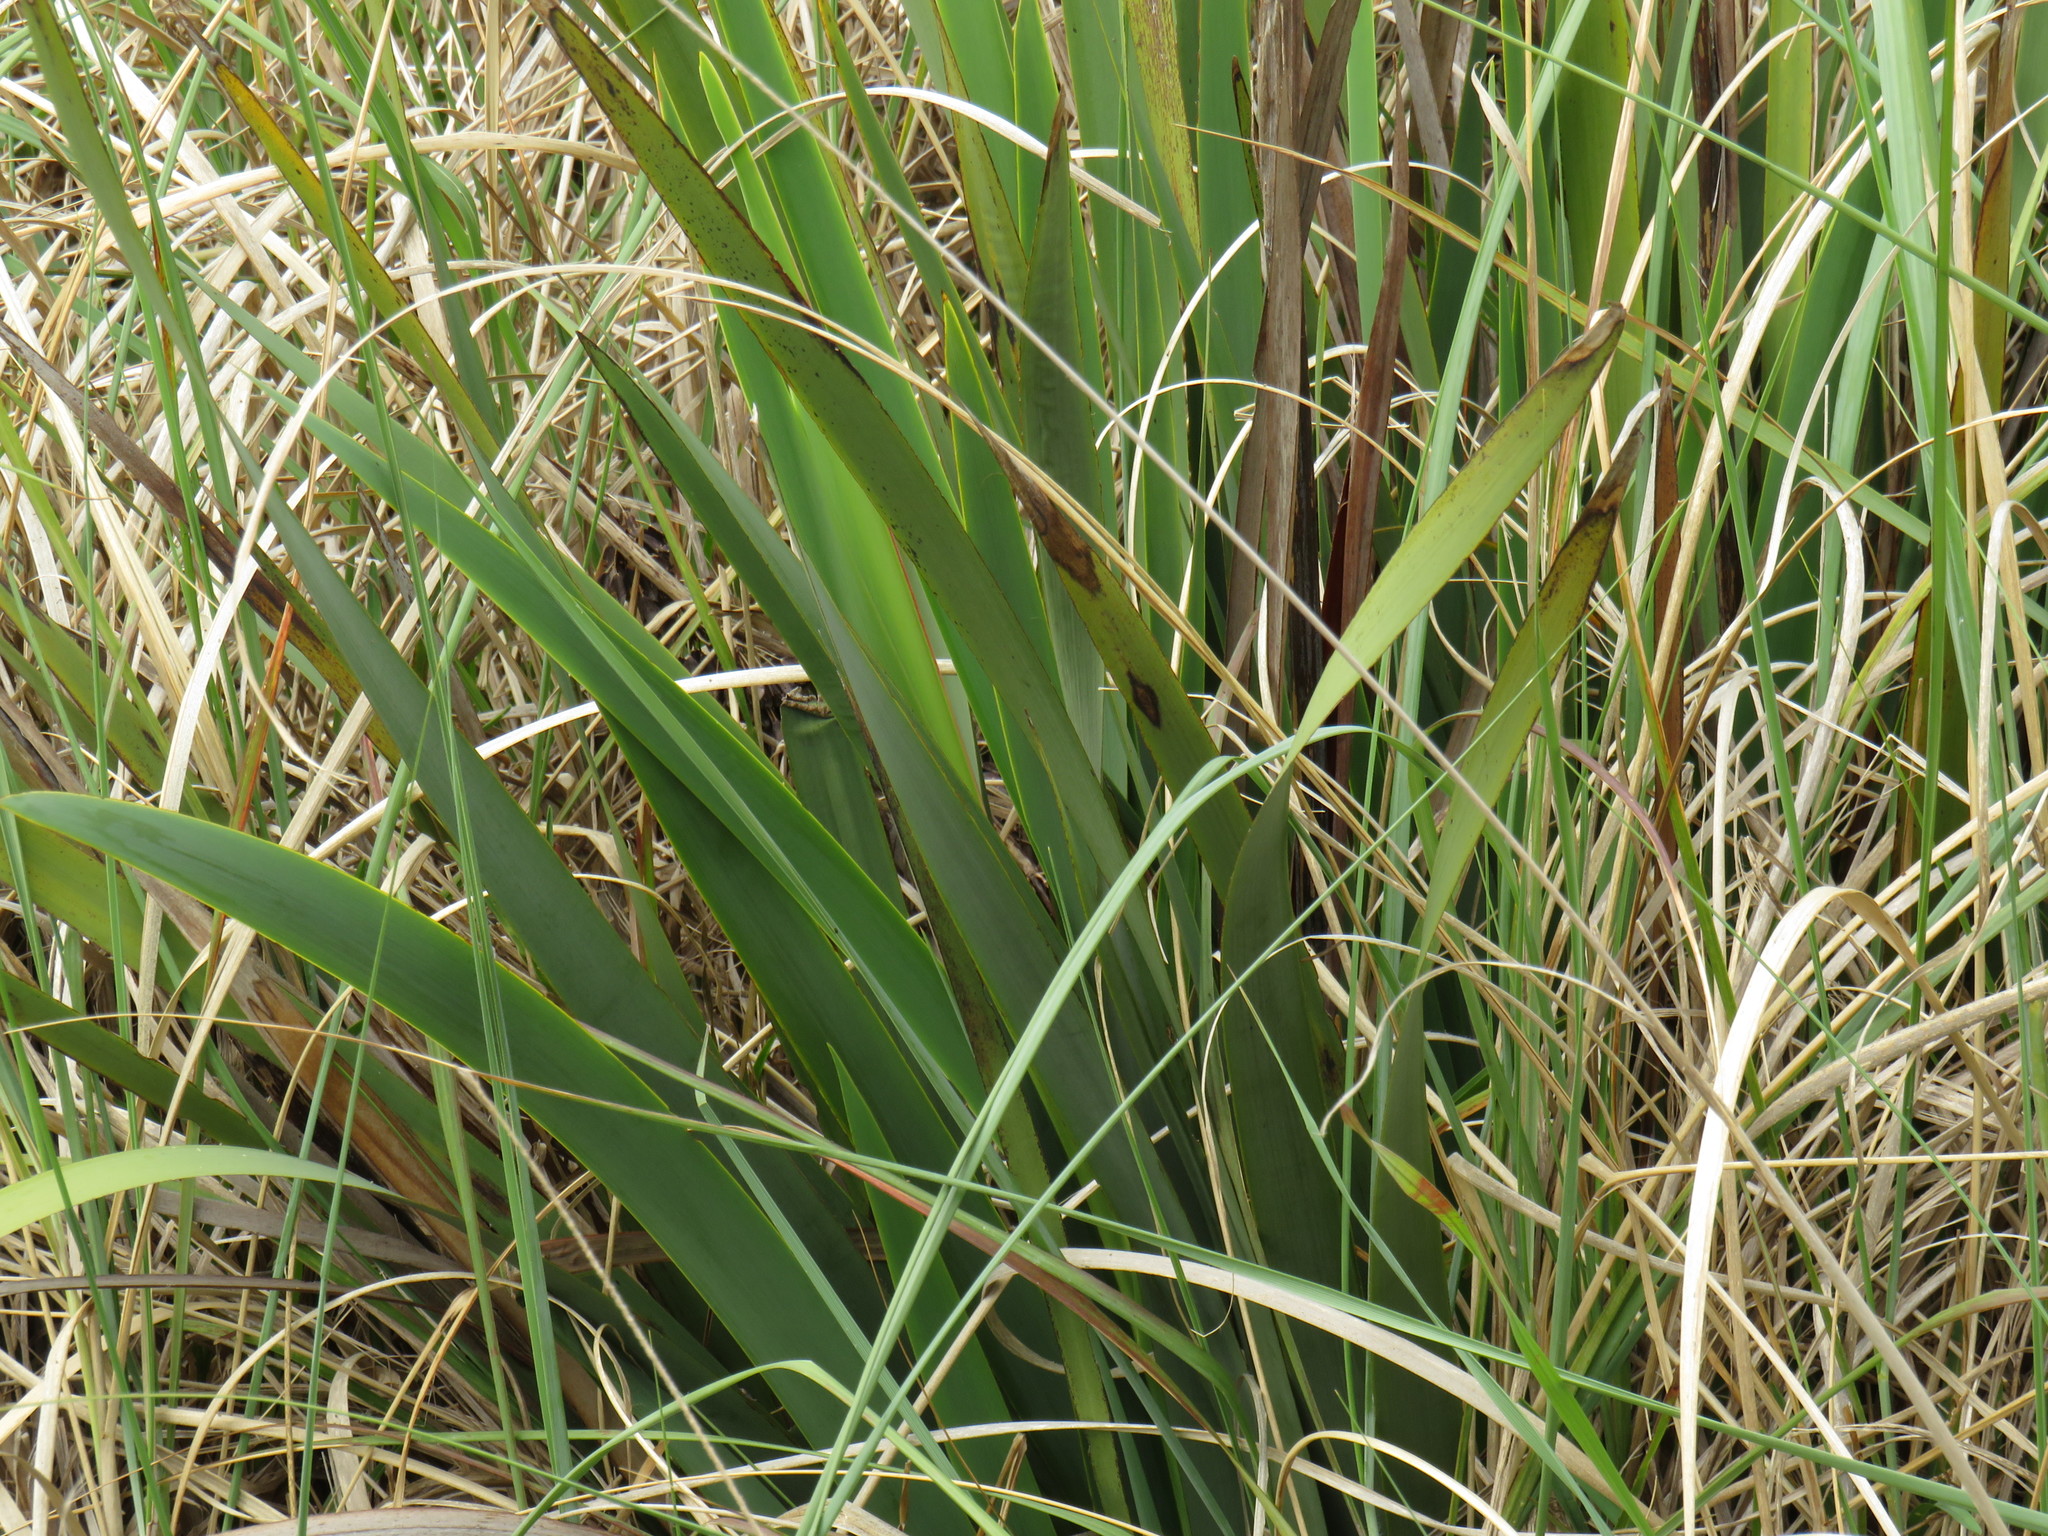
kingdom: Plantae
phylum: Tracheophyta
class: Liliopsida
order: Asparagales
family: Iridaceae
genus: Aristea
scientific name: Aristea capitata
